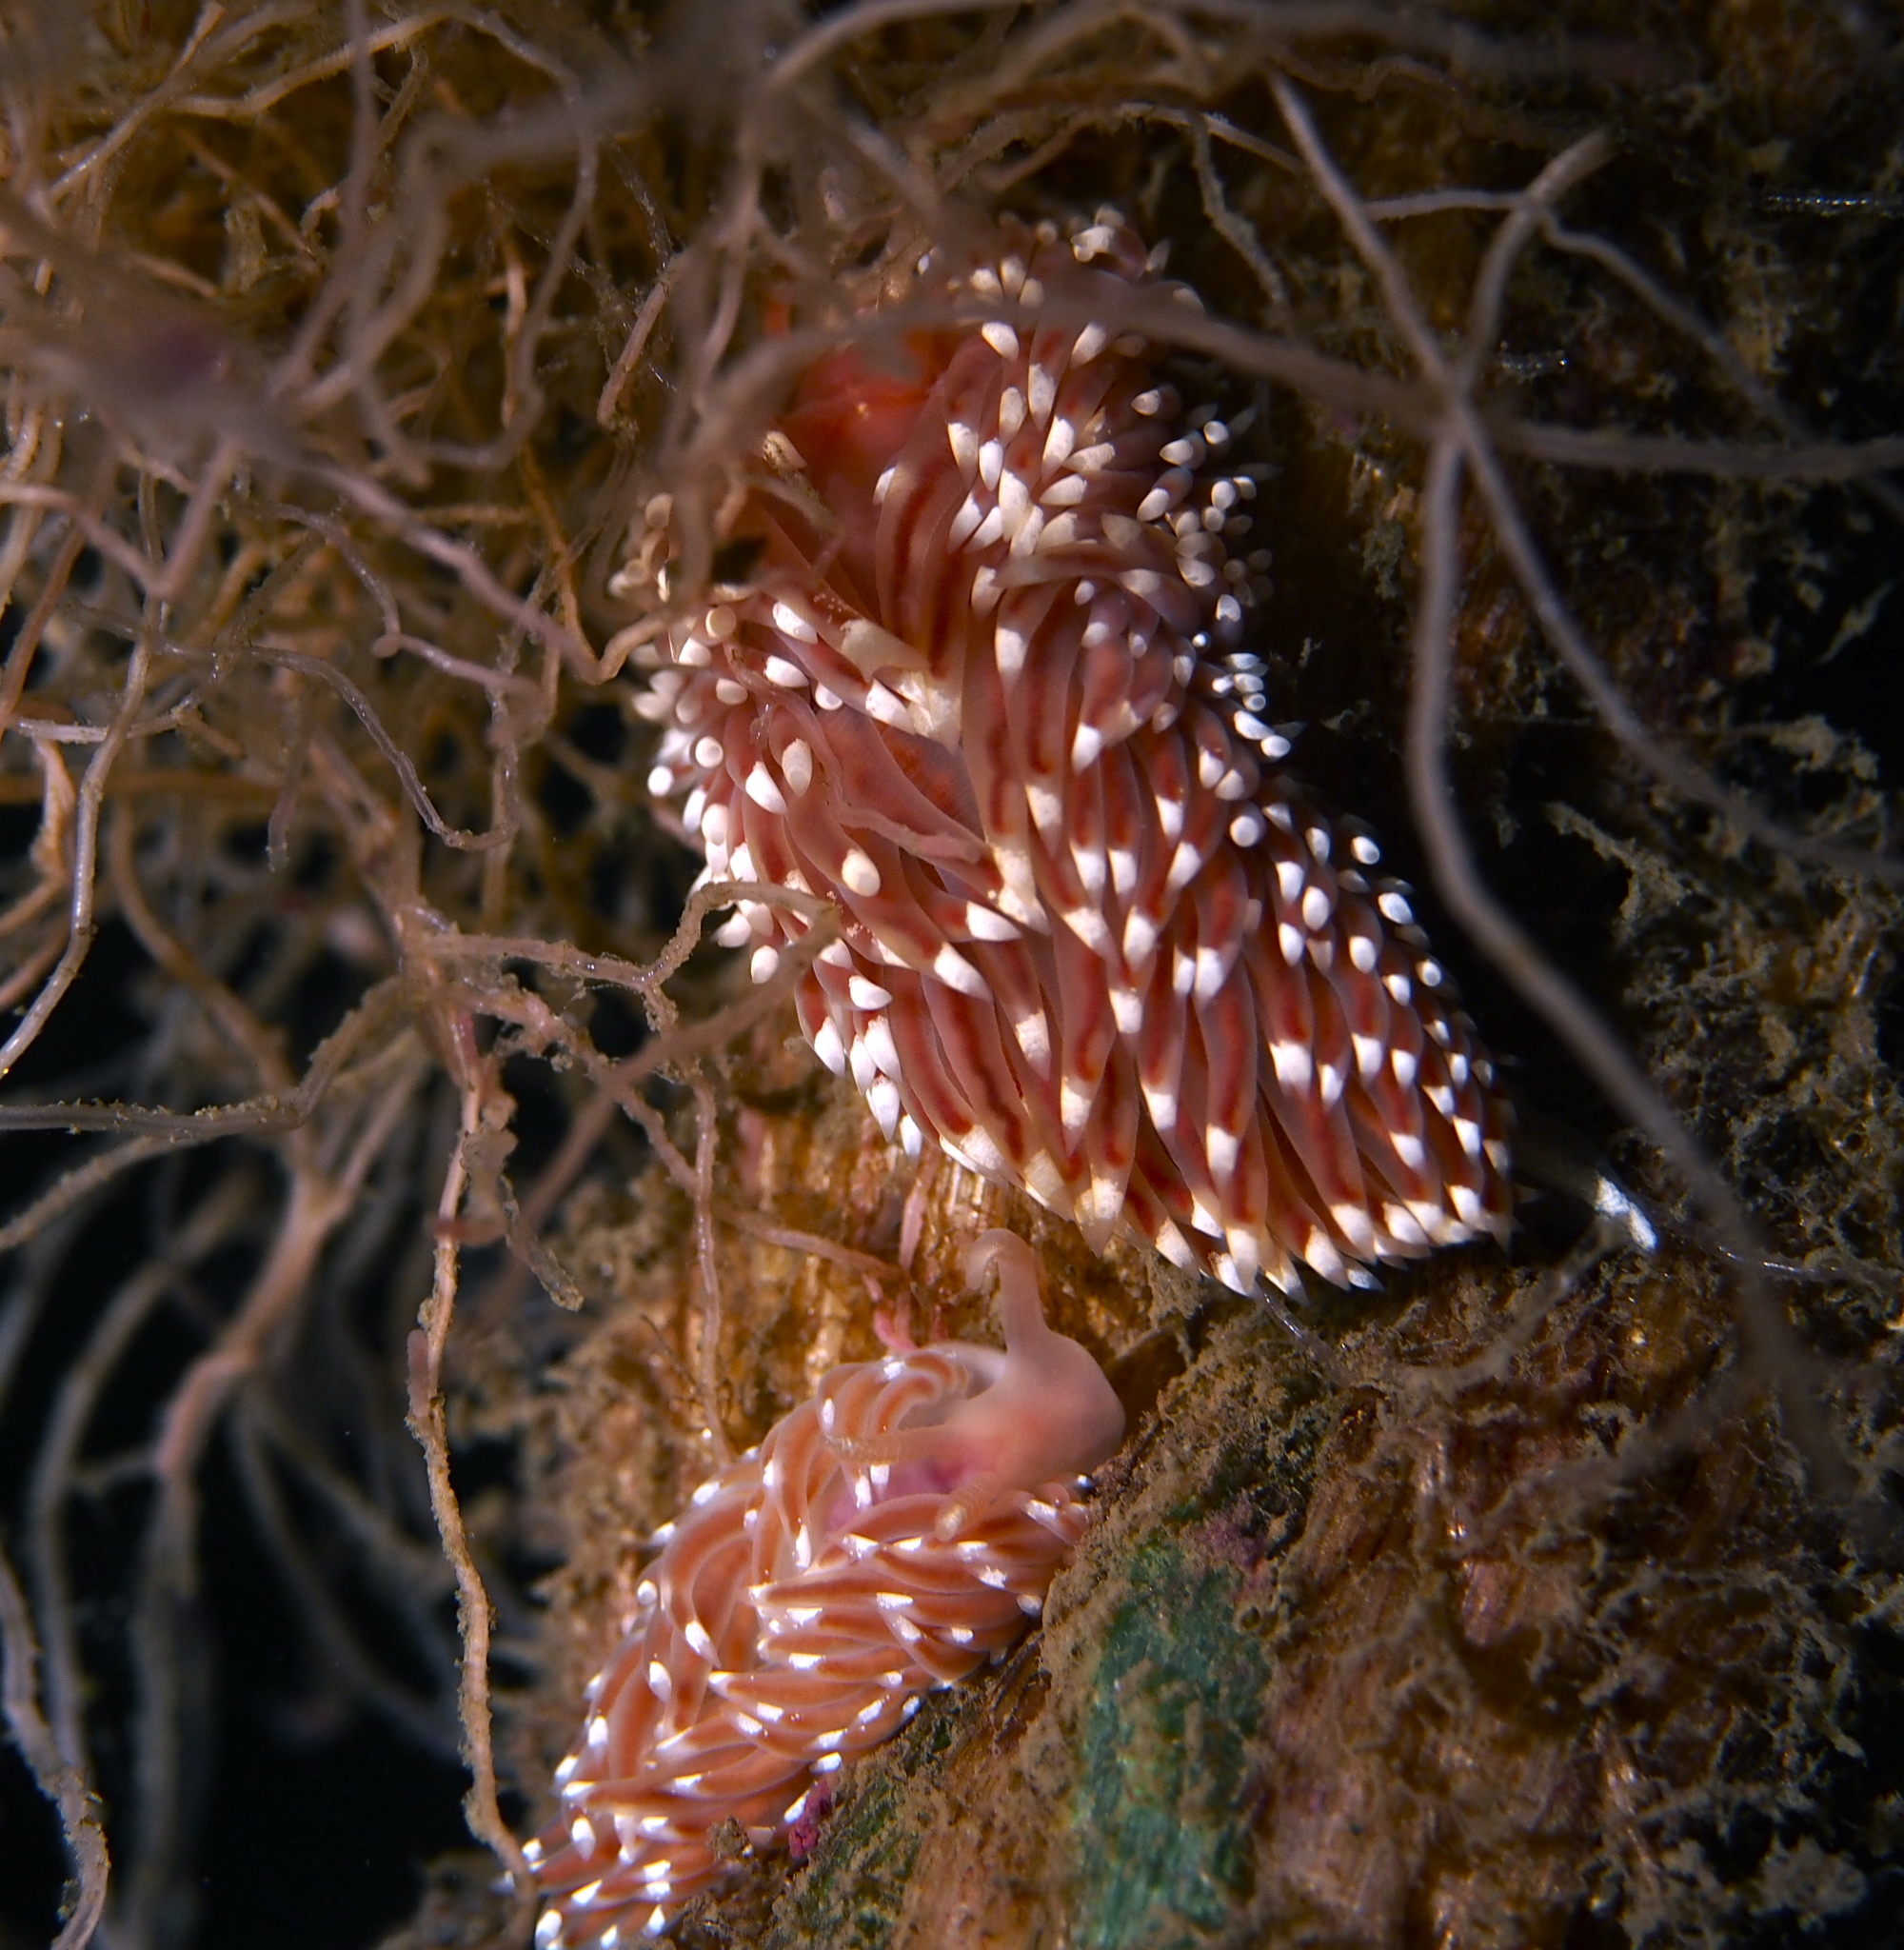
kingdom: Animalia
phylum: Mollusca
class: Gastropoda
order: Nudibranchia
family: Facelinidae
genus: Facelina
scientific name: Facelina bostoniensis
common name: Boston facelina
